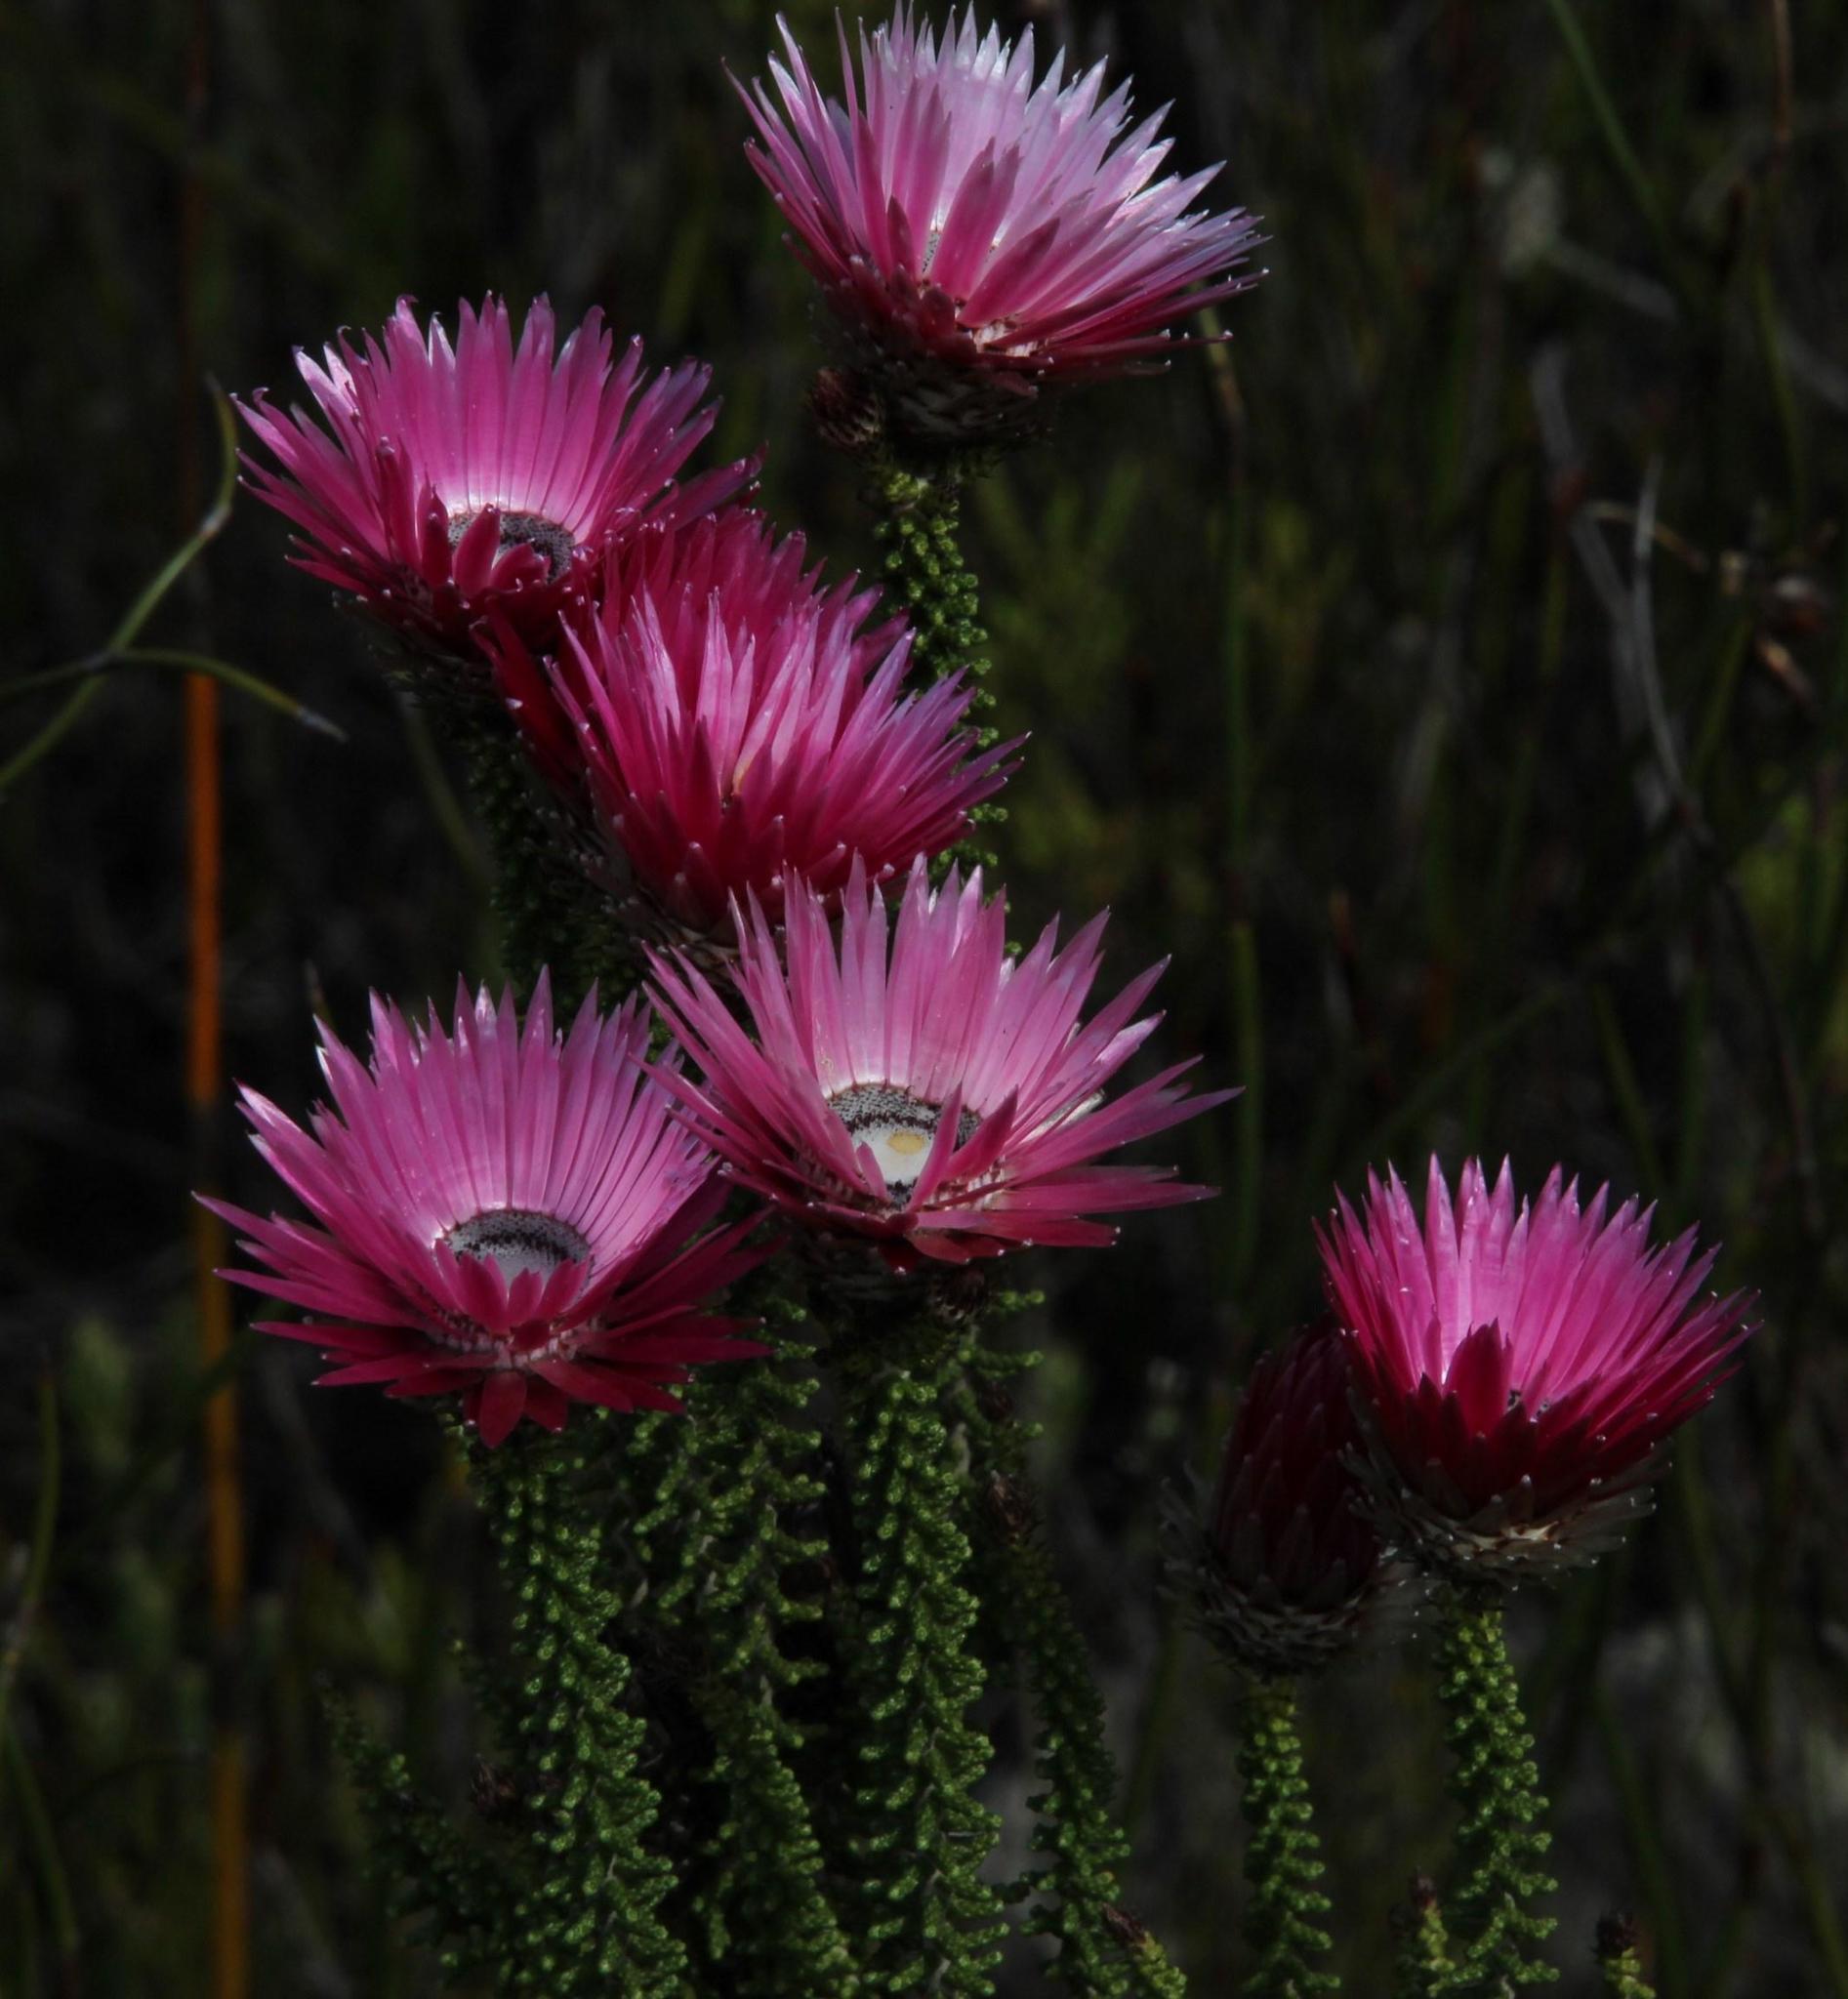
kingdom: Plantae
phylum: Tracheophyta
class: Magnoliopsida
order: Asterales
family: Asteraceae
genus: Phaenocoma
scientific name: Phaenocoma prolifera
